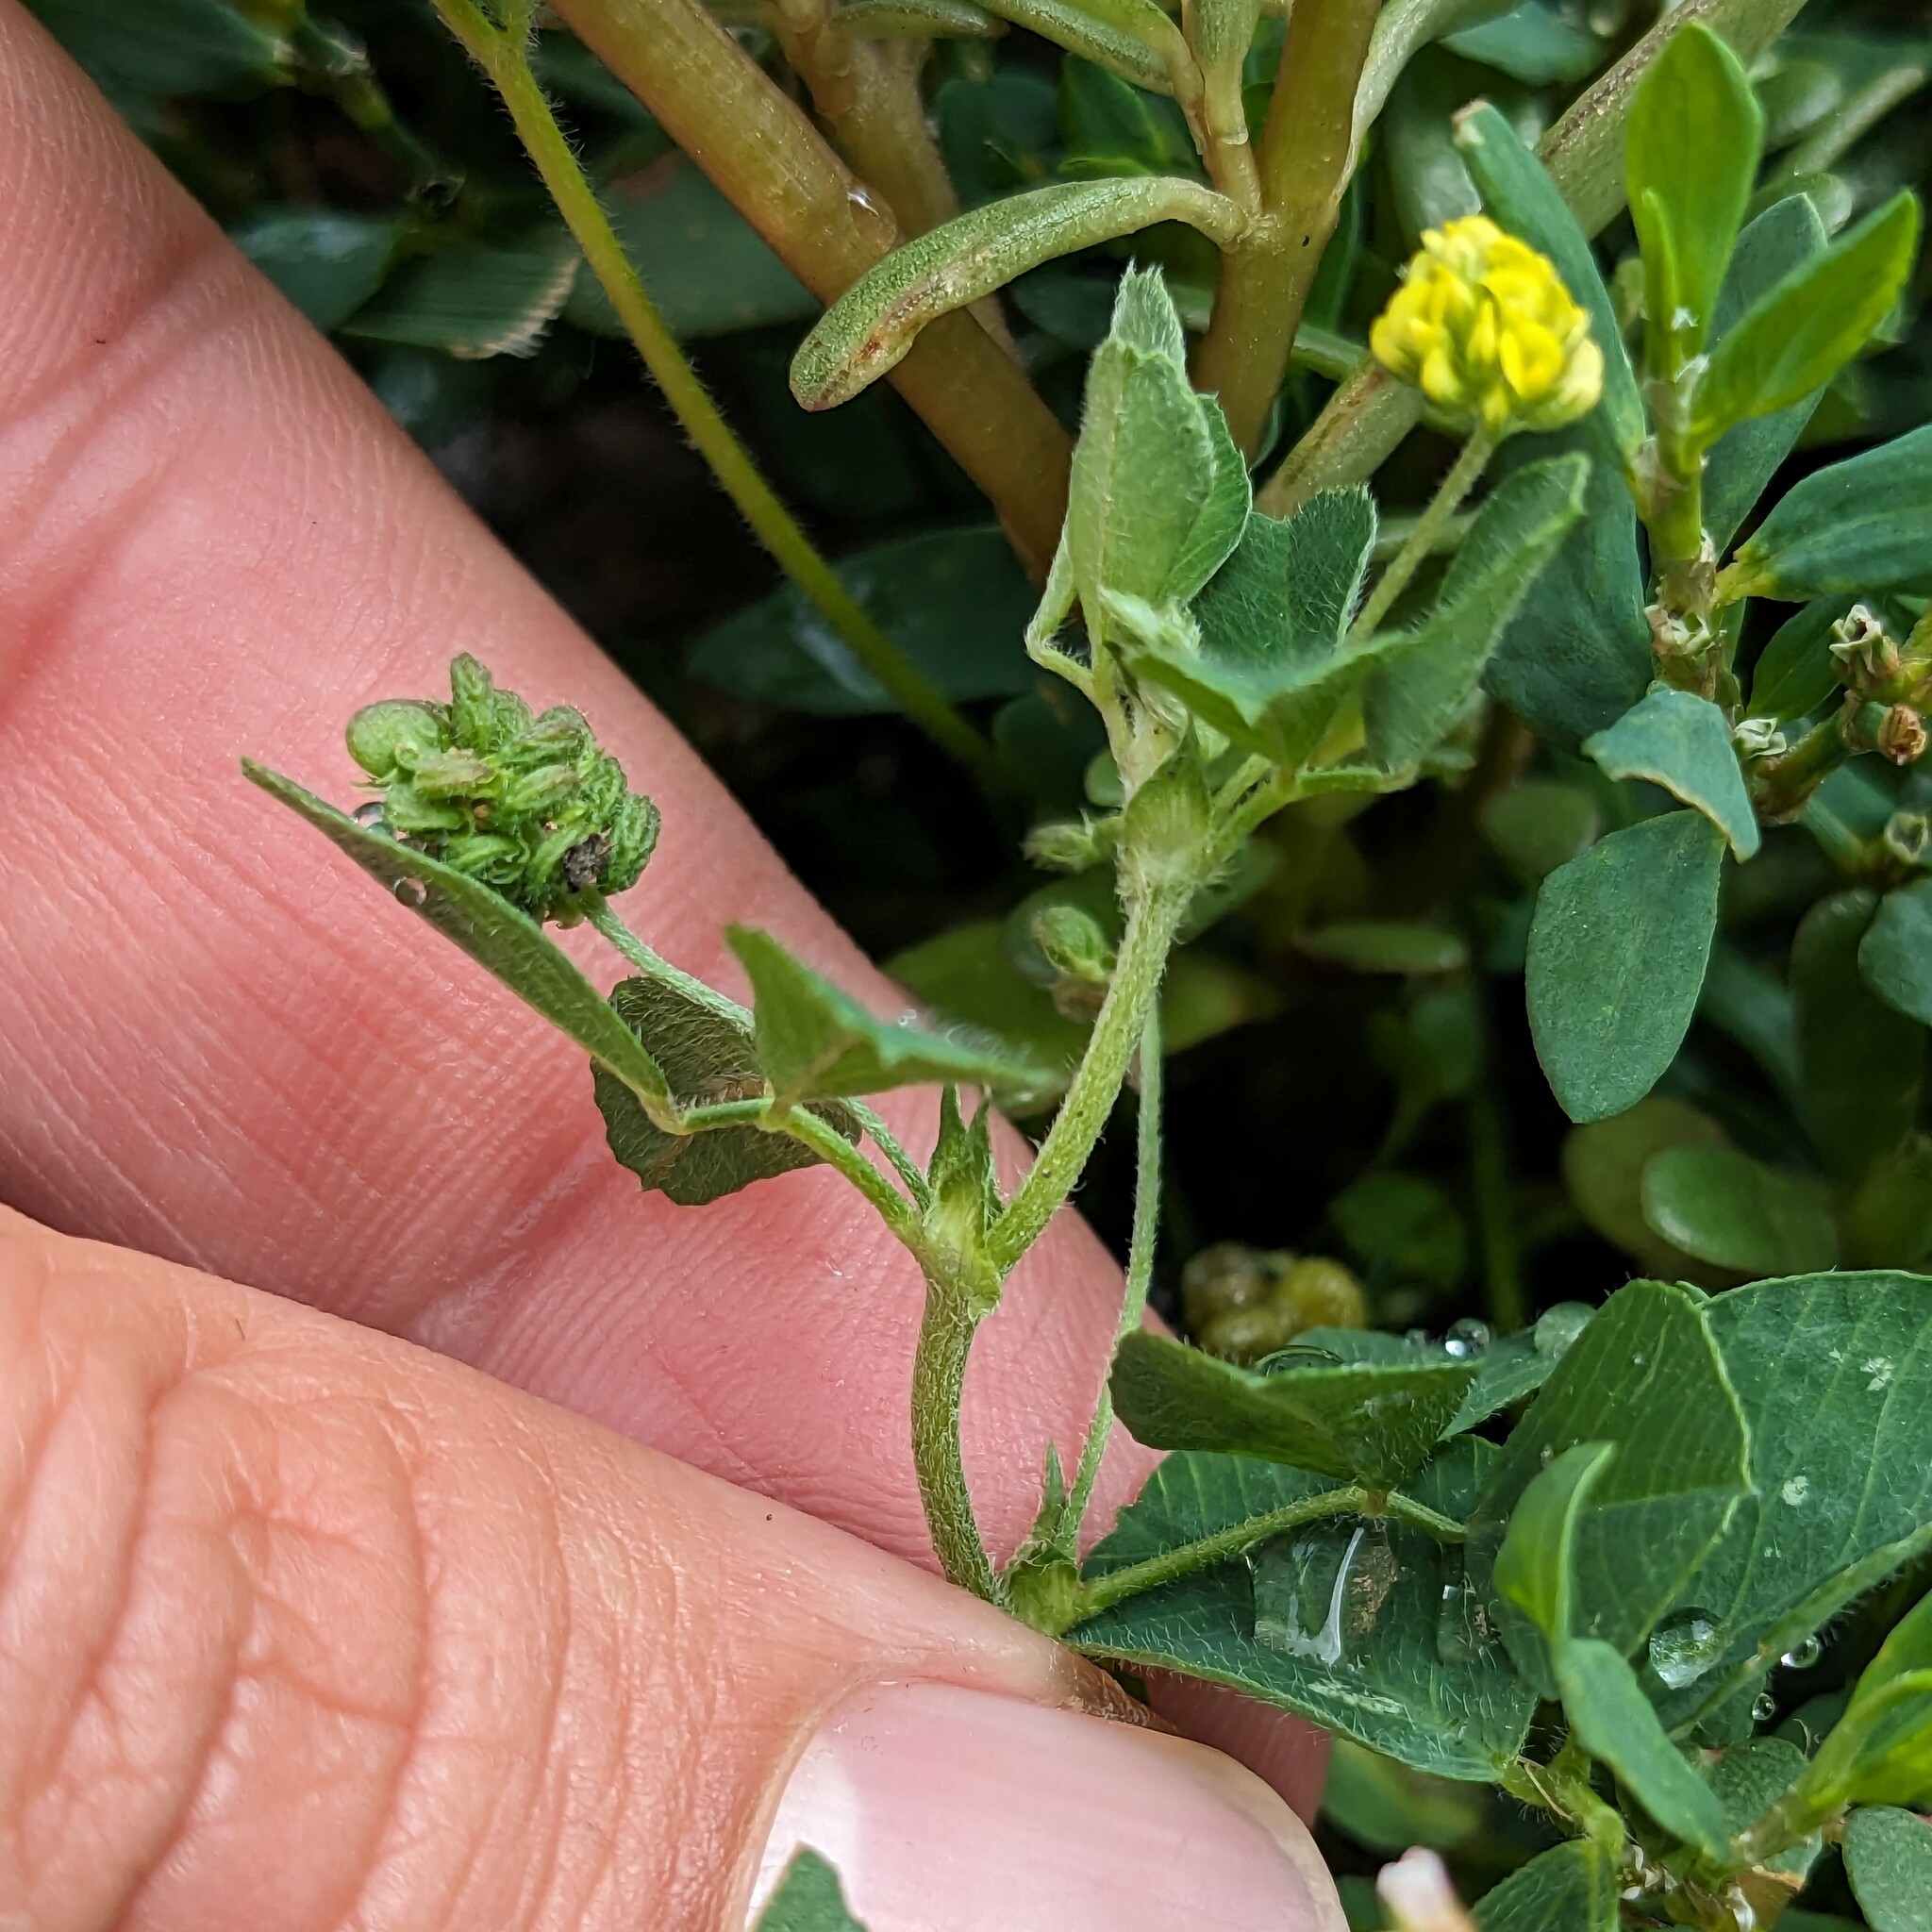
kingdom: Plantae
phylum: Tracheophyta
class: Magnoliopsida
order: Fabales
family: Fabaceae
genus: Medicago
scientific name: Medicago lupulina
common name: Black medick
